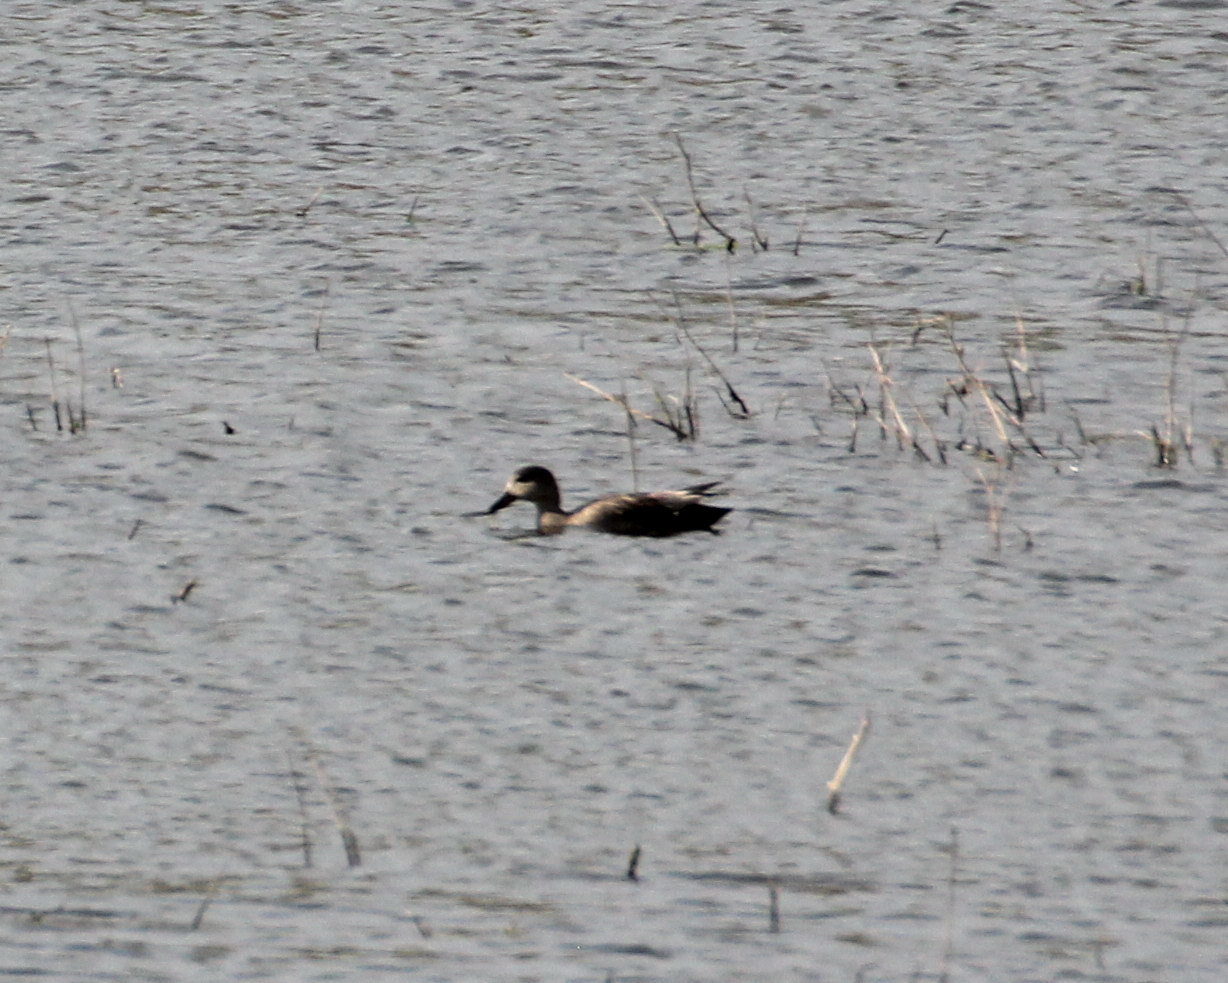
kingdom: Animalia
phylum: Chordata
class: Aves
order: Anseriformes
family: Anatidae
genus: Mareca
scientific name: Mareca strepera
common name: Gadwall
